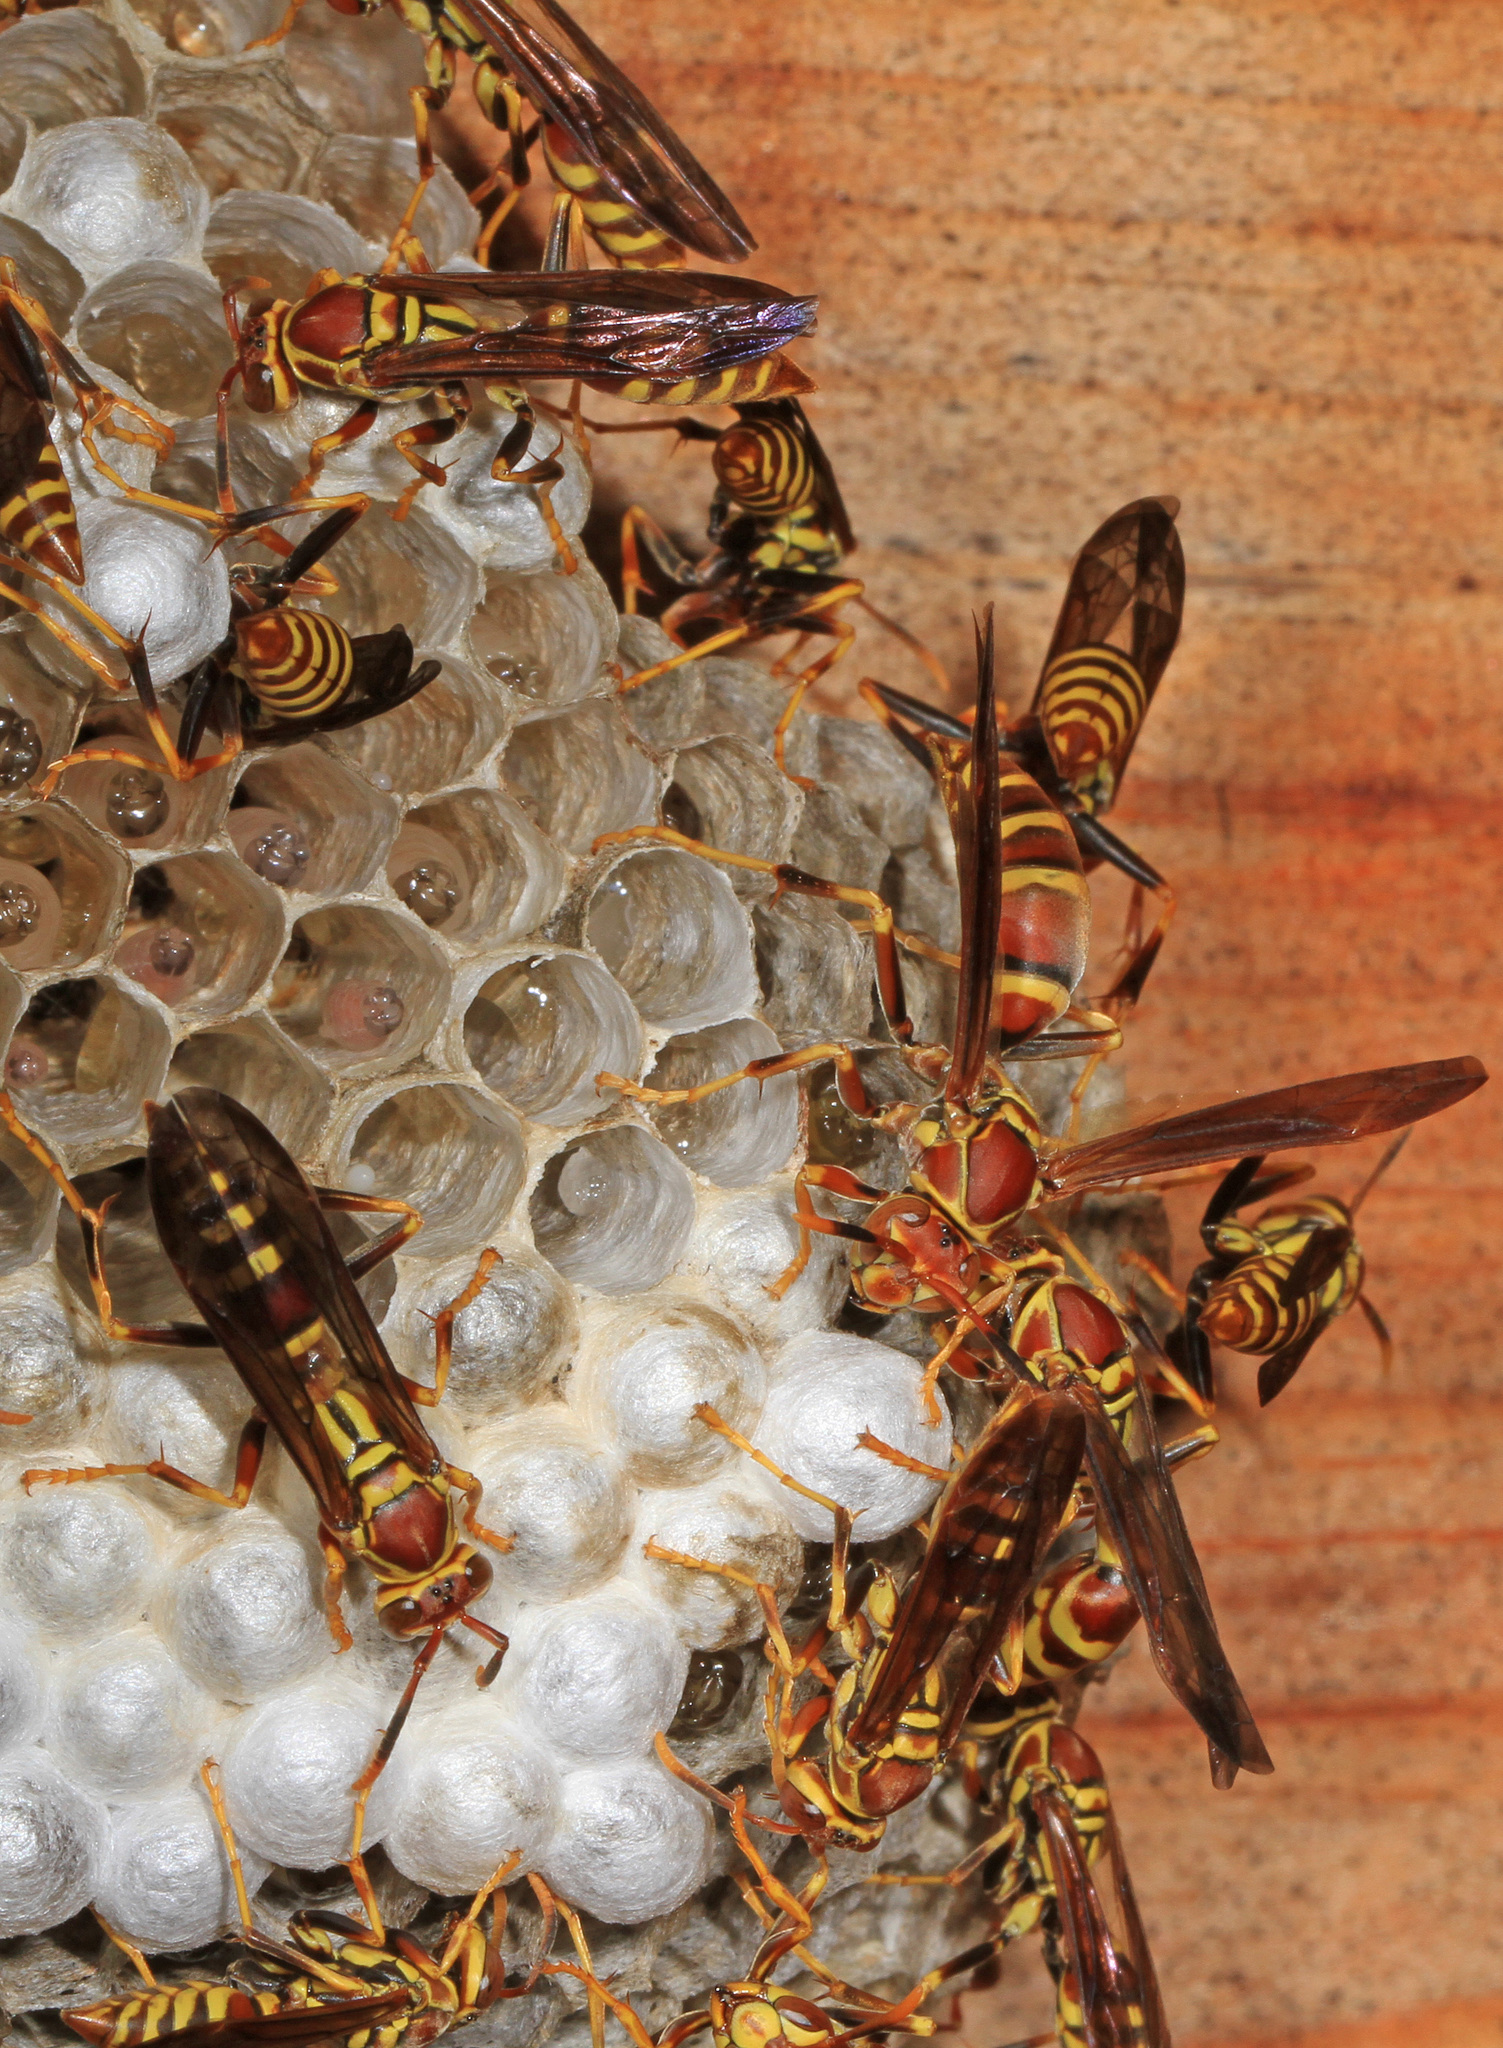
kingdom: Animalia
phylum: Arthropoda
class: Insecta
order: Hymenoptera
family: Eumenidae
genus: Polistes
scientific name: Polistes exclamans
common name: Paper wasp
